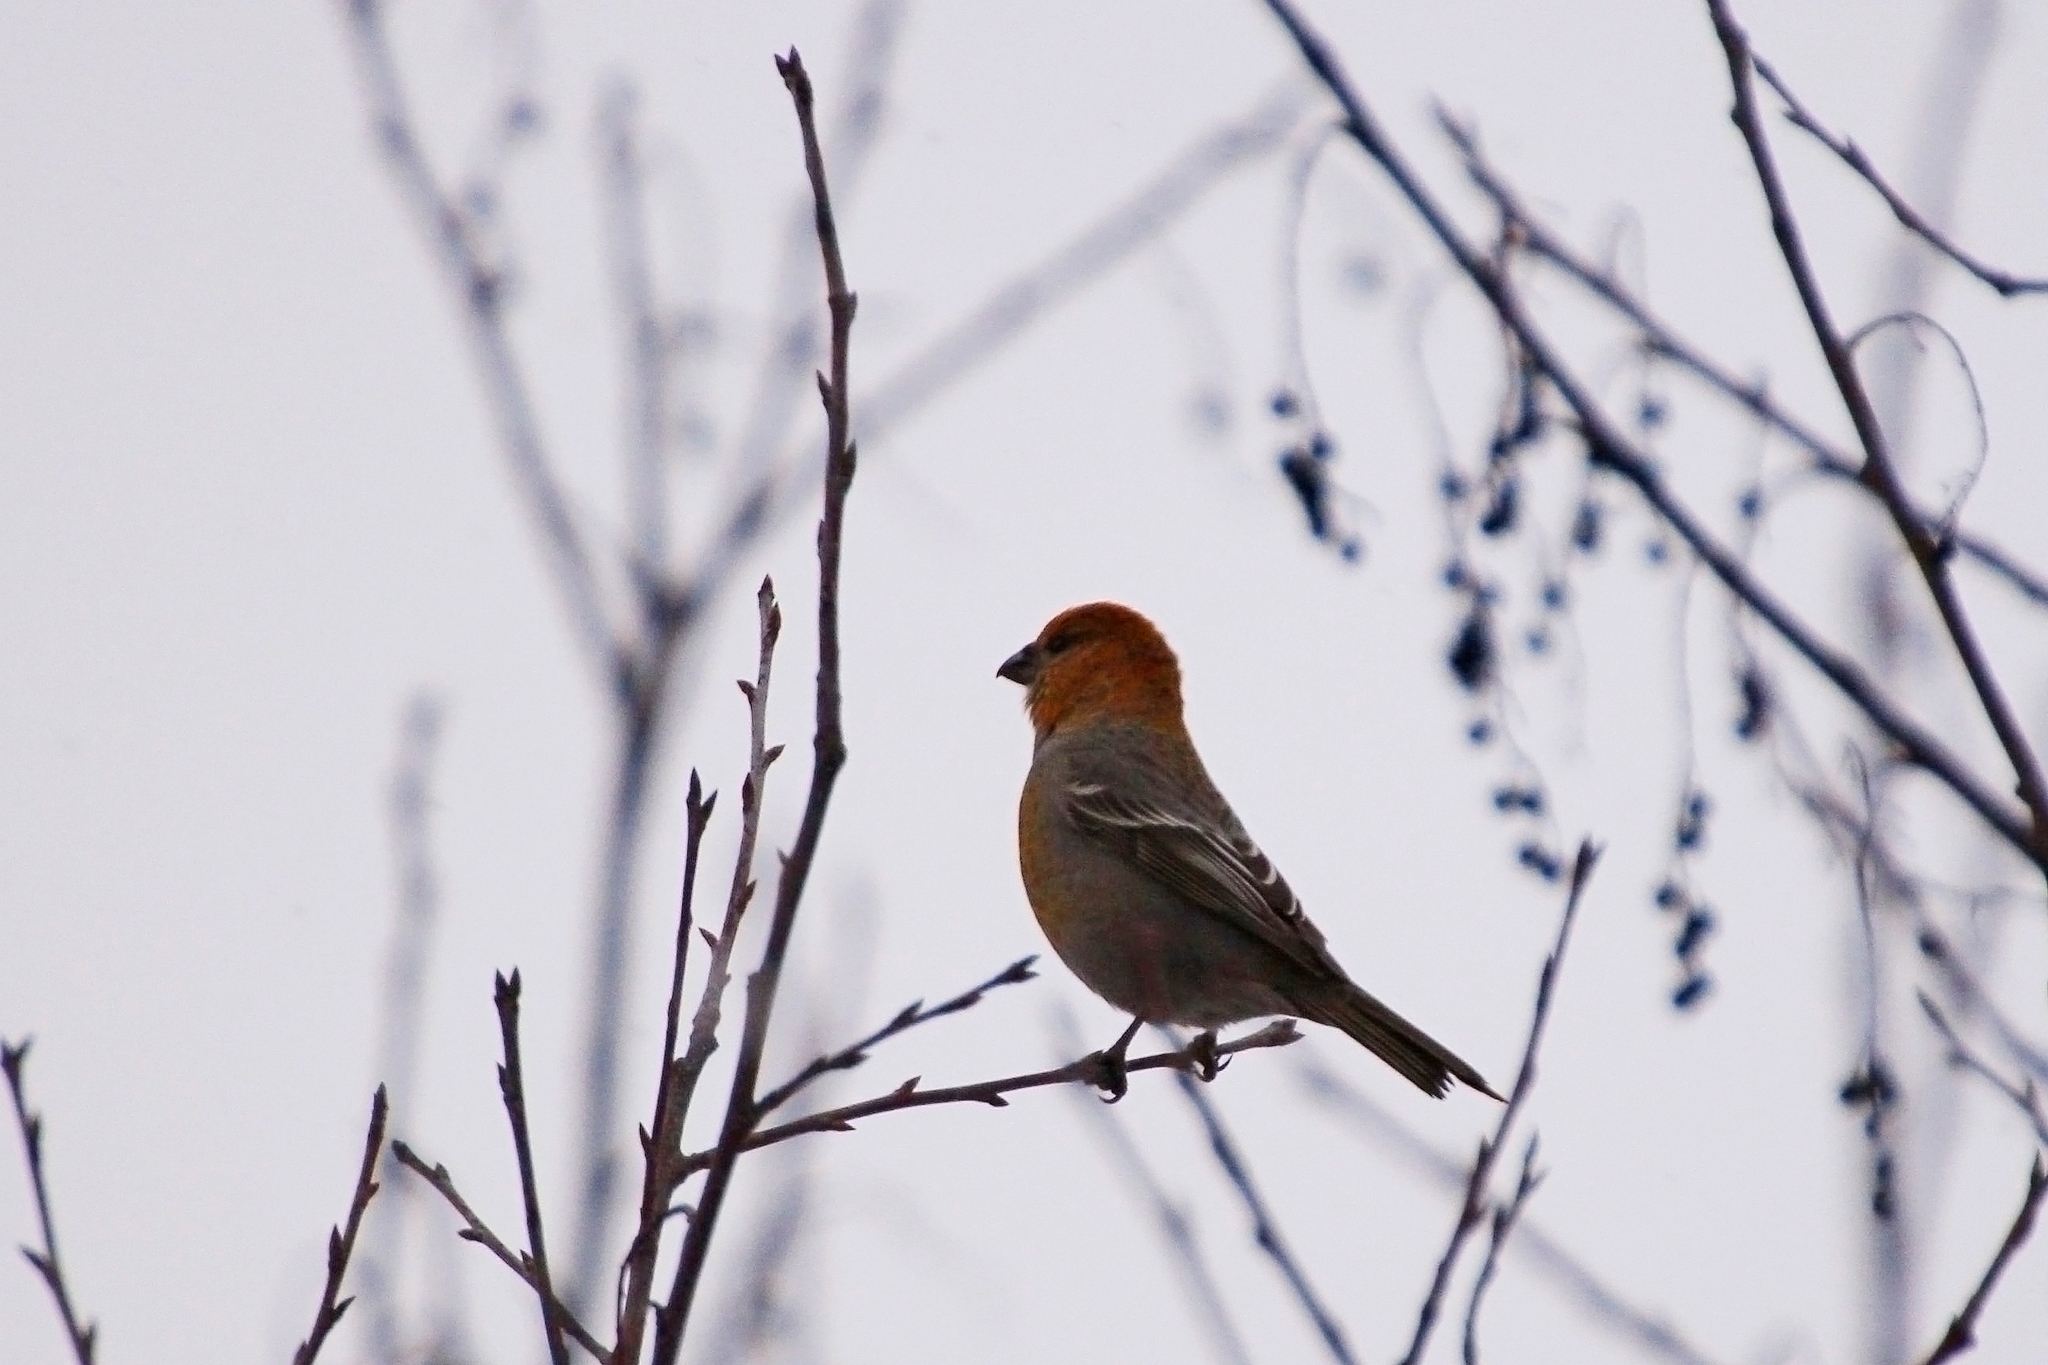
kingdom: Animalia
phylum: Chordata
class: Aves
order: Passeriformes
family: Fringillidae
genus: Pinicola
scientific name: Pinicola enucleator
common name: Pine grosbeak
